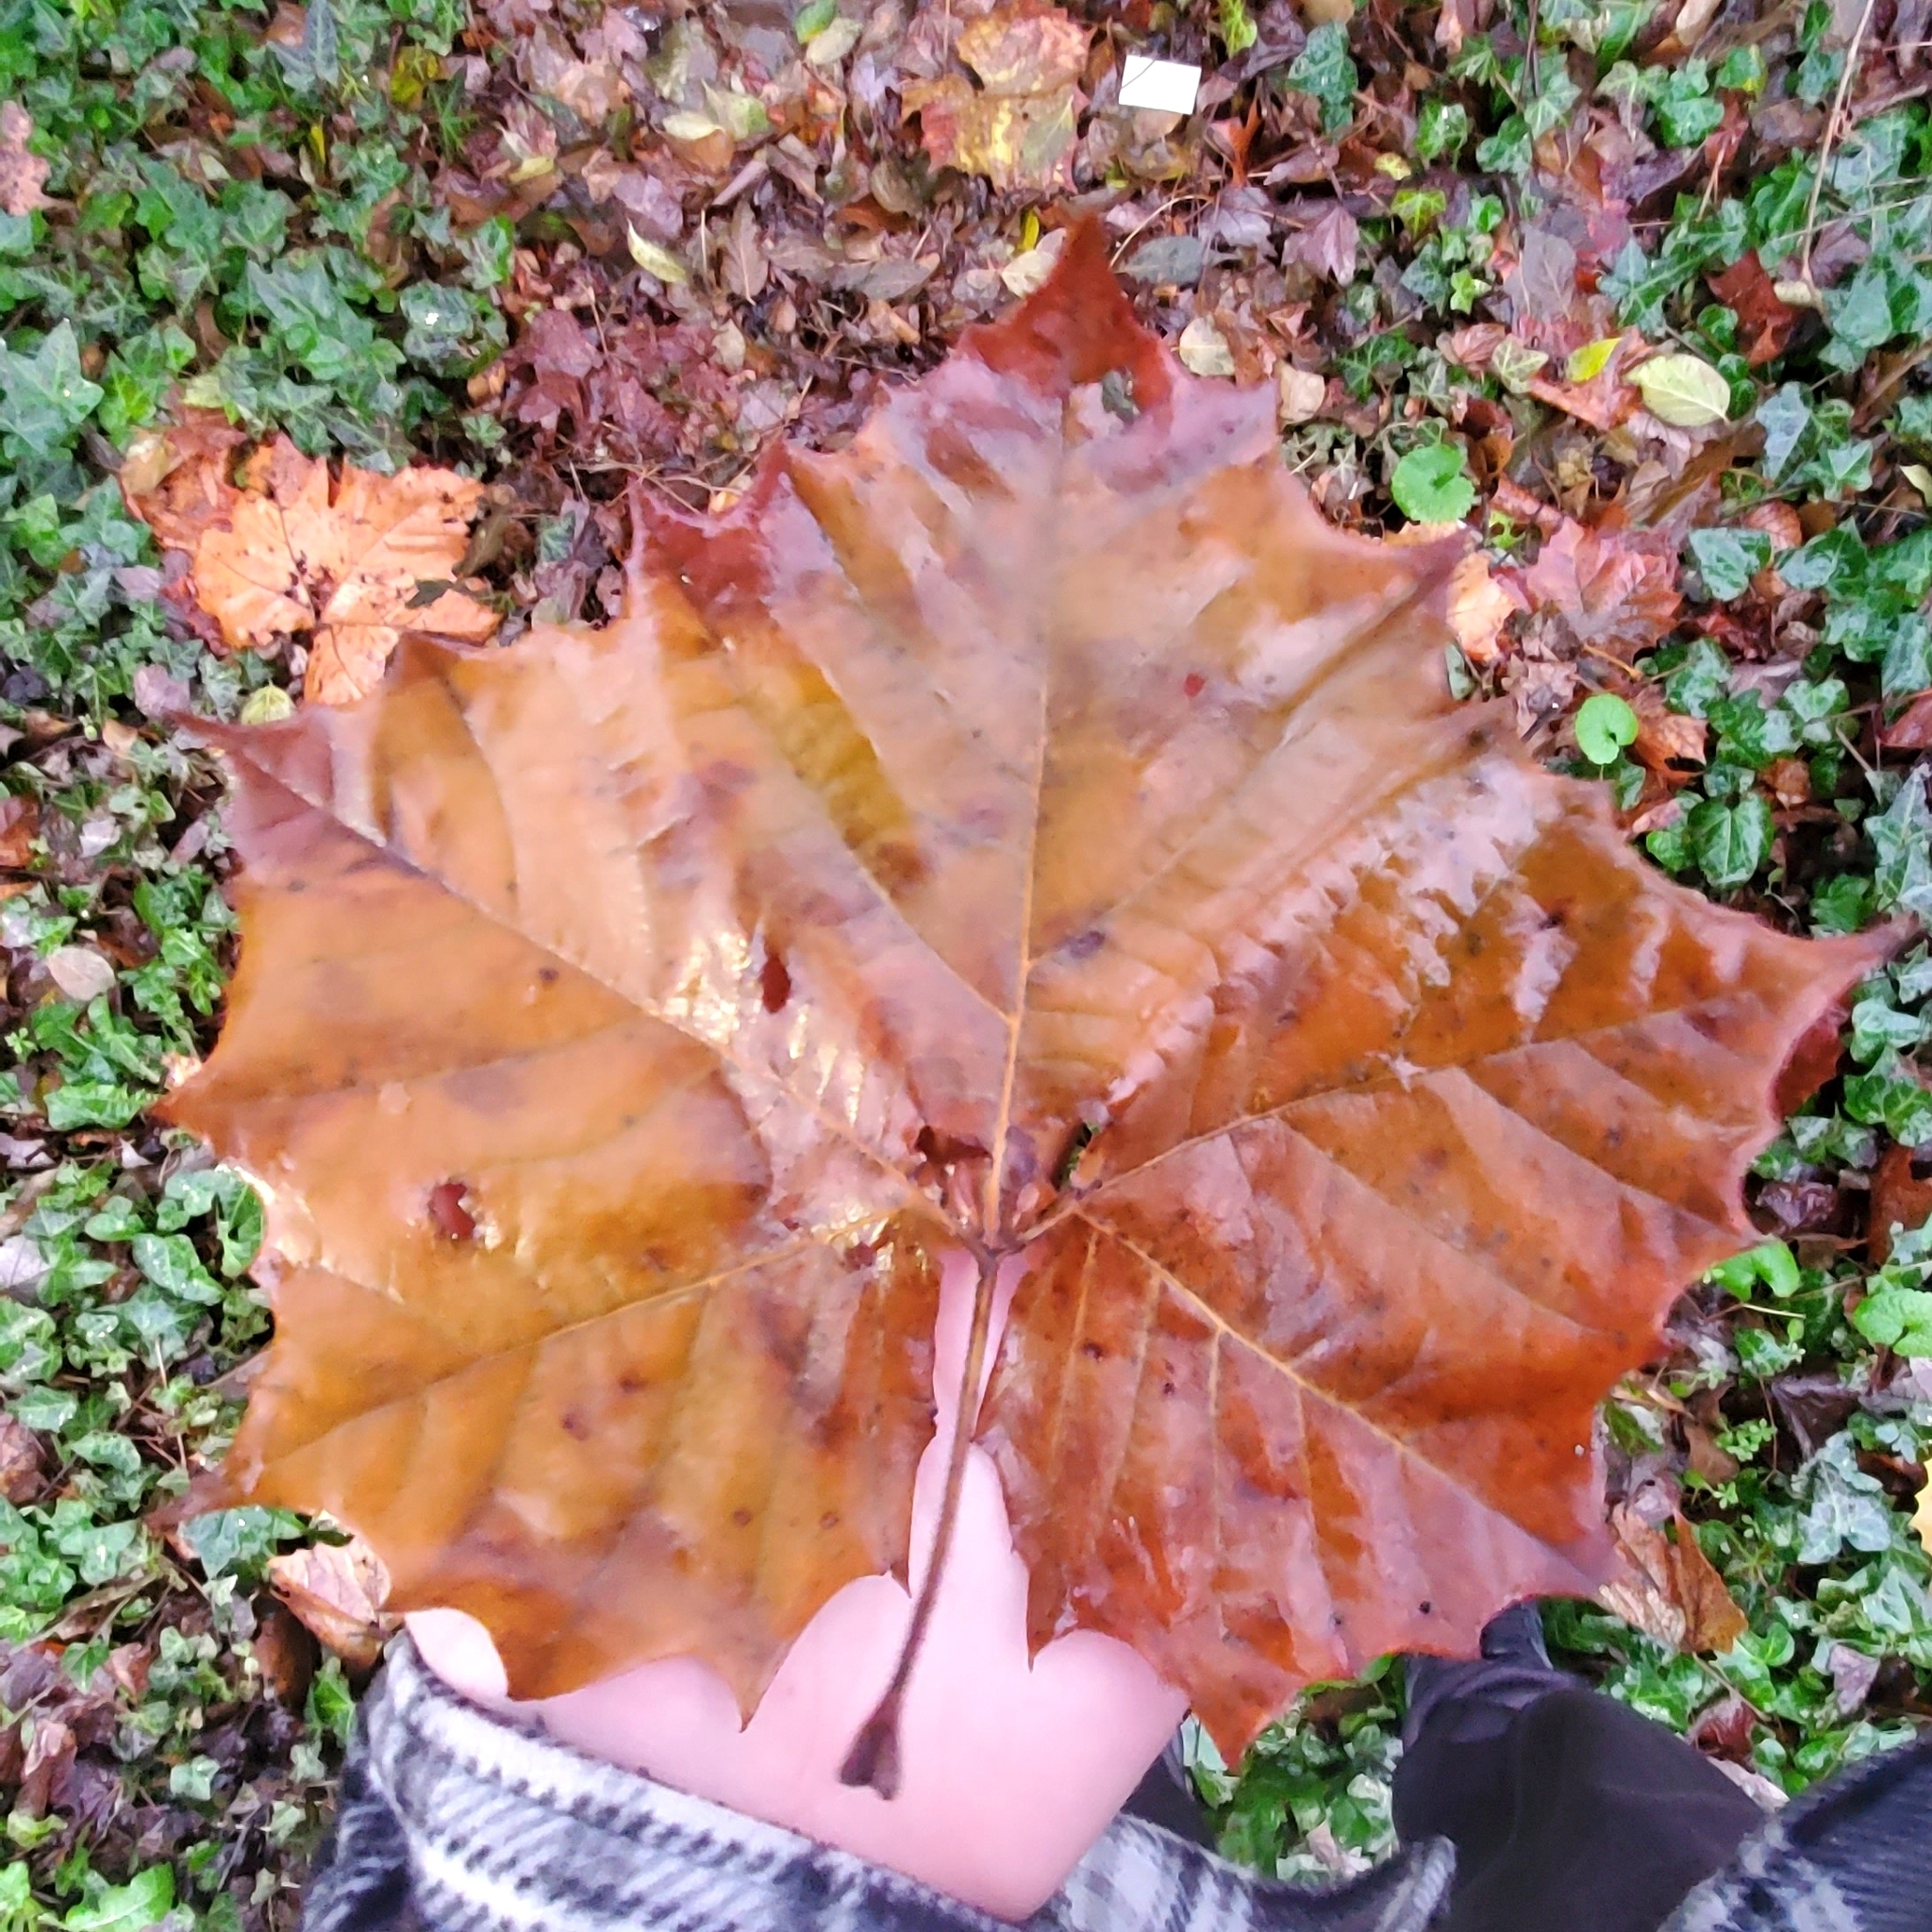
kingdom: Plantae
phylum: Tracheophyta
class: Magnoliopsida
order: Proteales
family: Platanaceae
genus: Platanus
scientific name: Platanus occidentalis
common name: American sycamore
